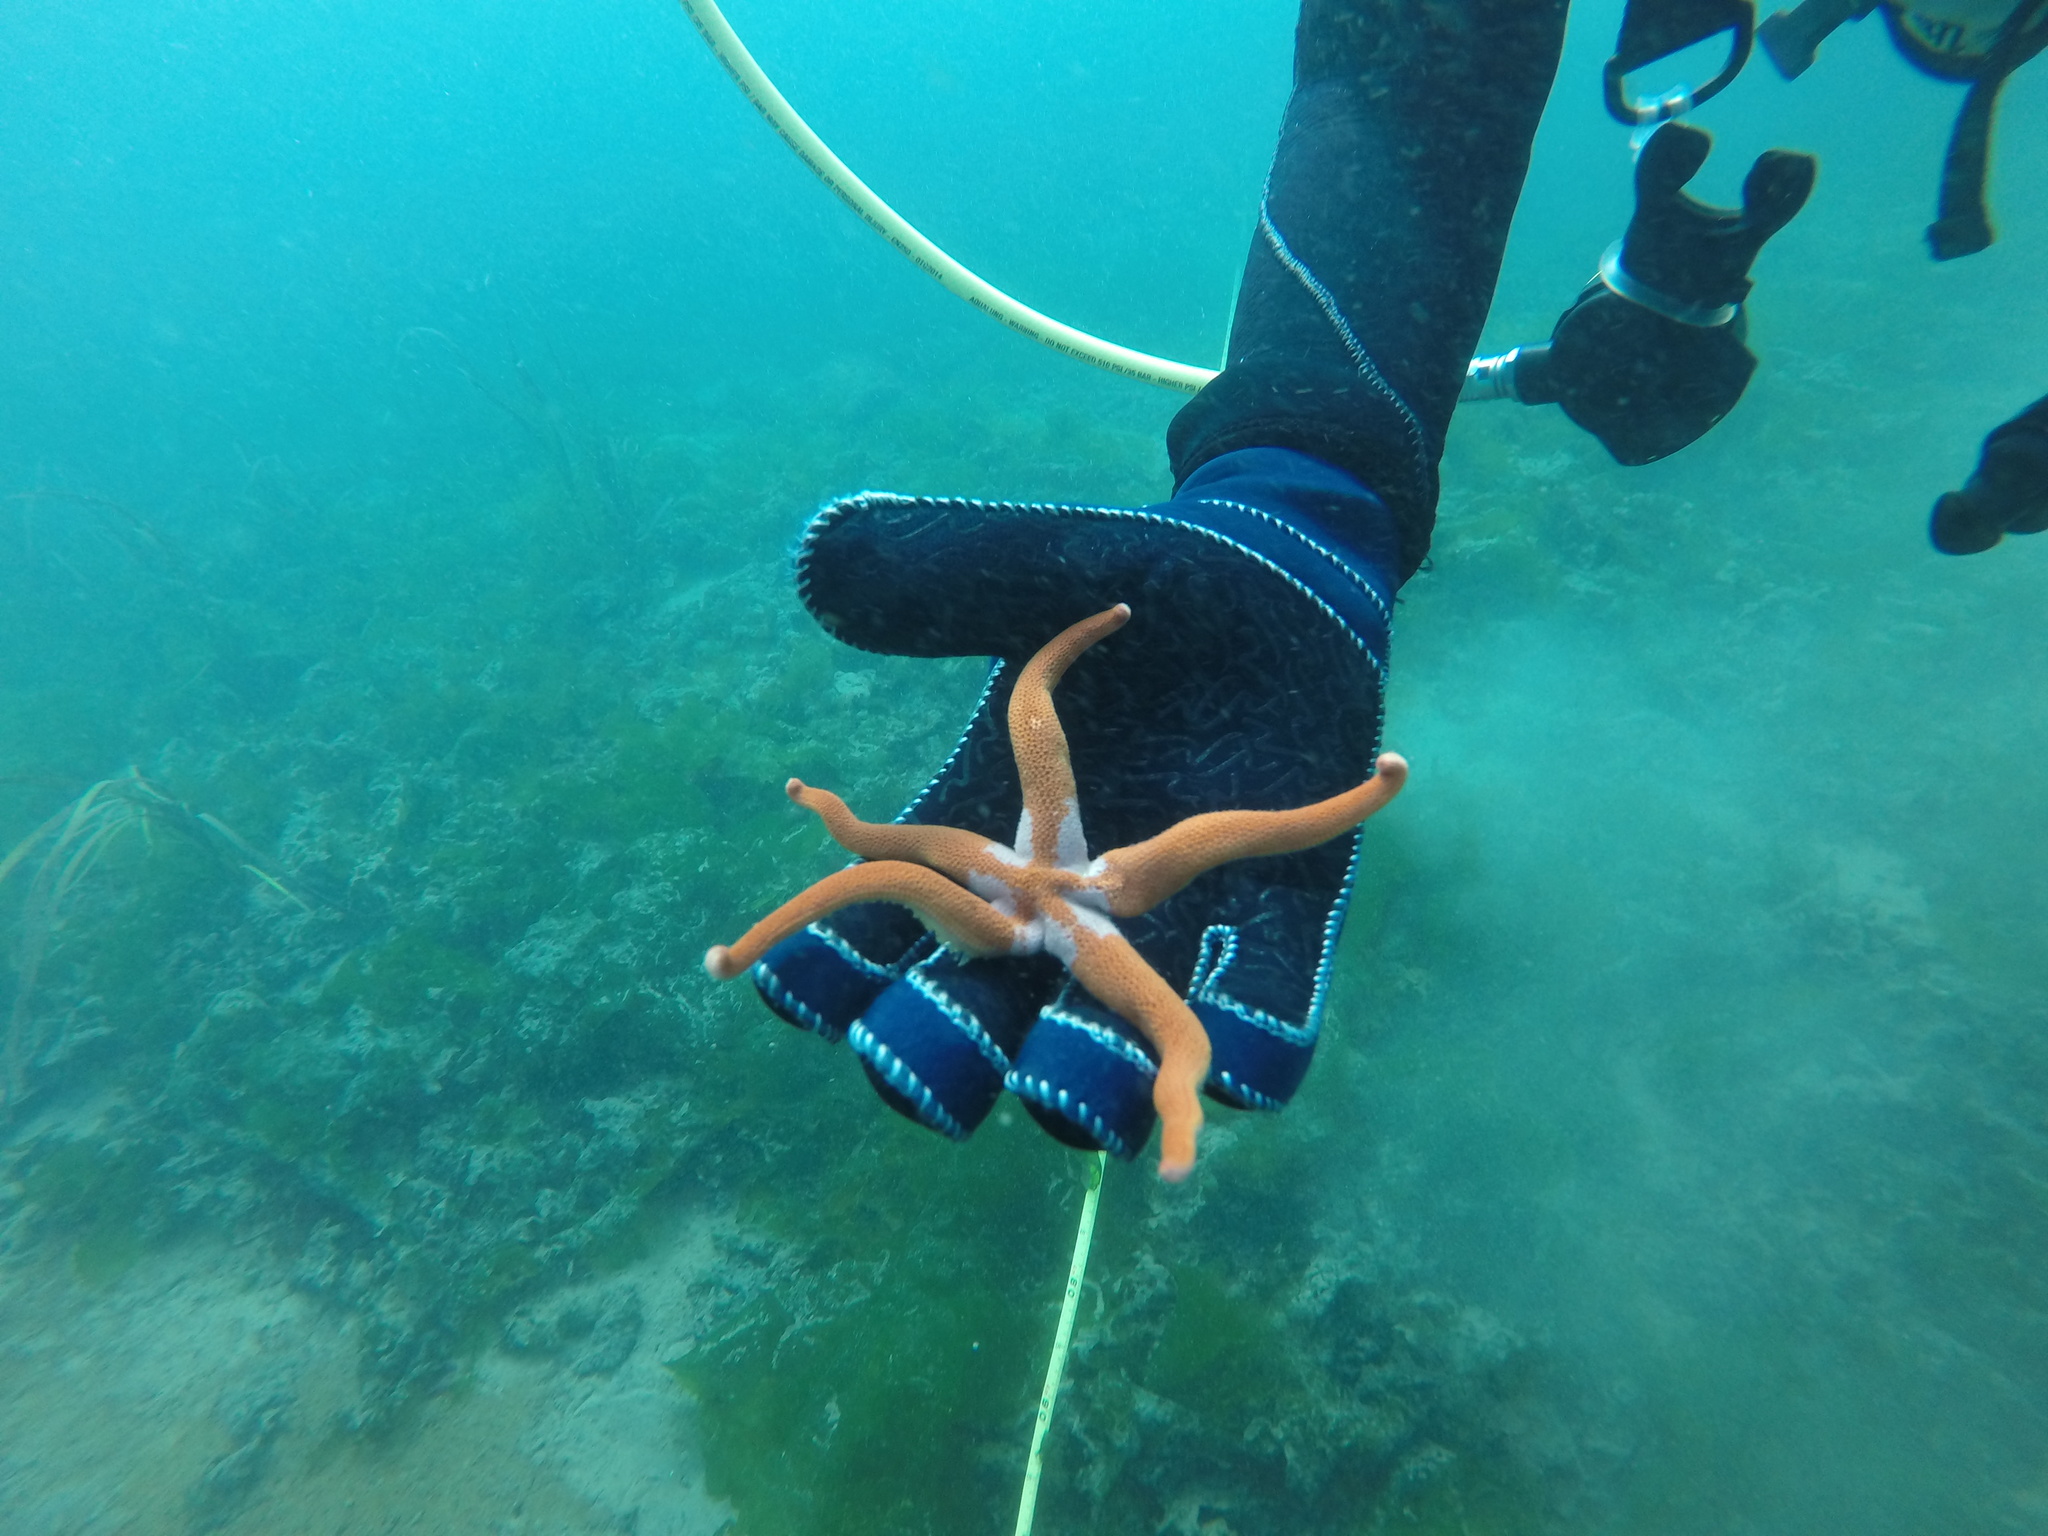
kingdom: Animalia
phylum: Echinodermata
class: Asteroidea
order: Spinulosida
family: Echinasteridae
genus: Henricia
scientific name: Henricia leviuscula
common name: Pacific blood star
